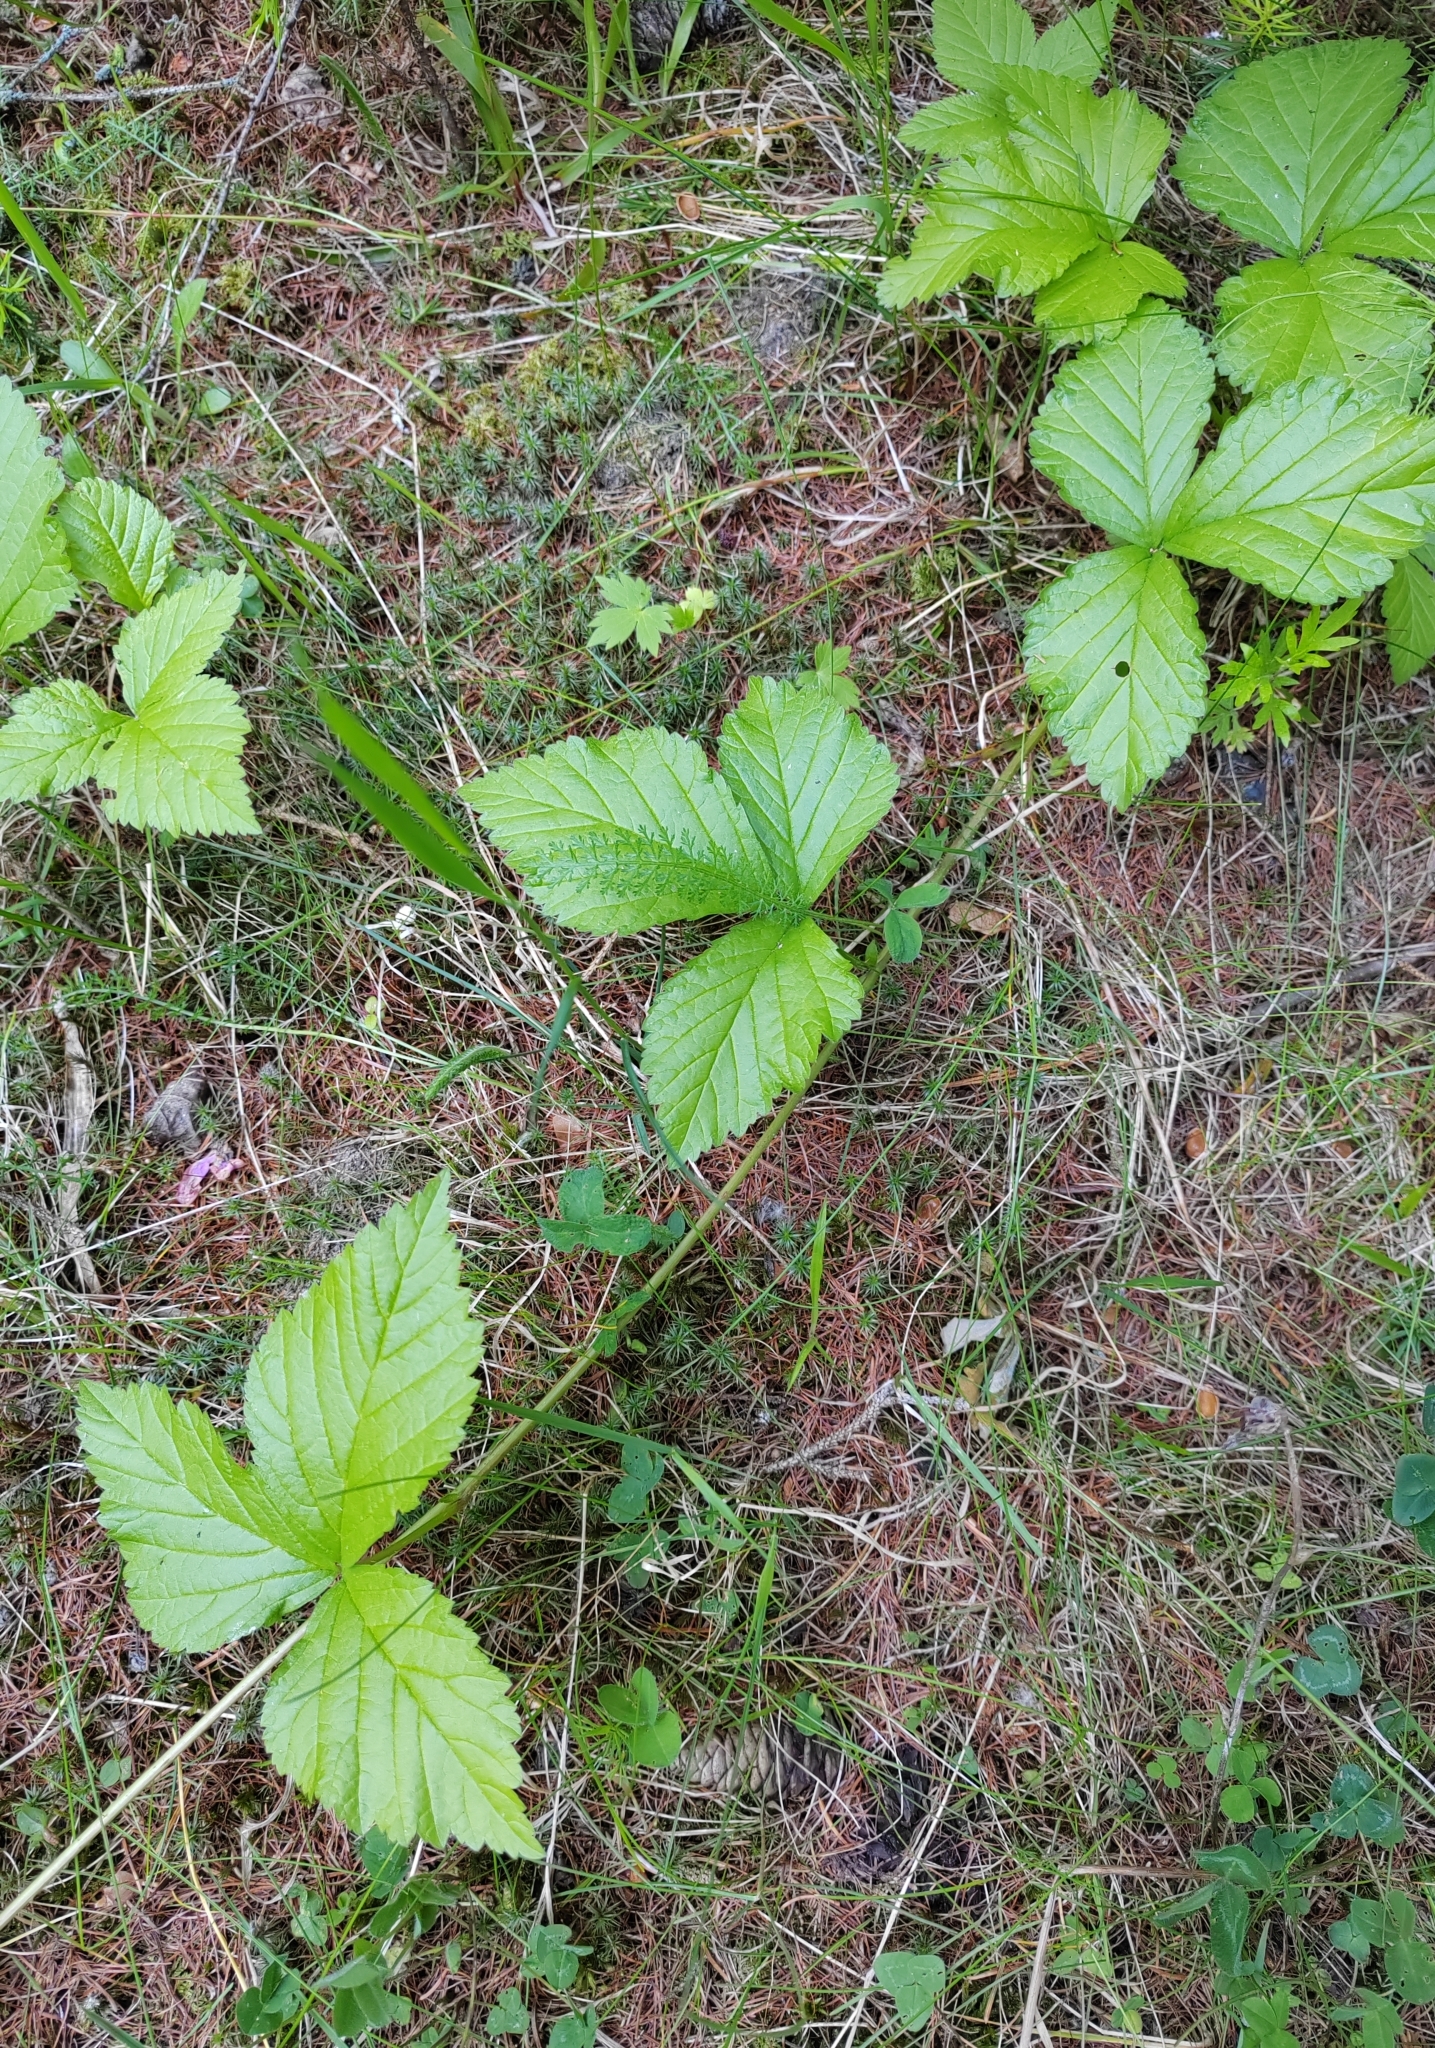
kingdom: Plantae
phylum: Tracheophyta
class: Magnoliopsida
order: Rosales
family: Rosaceae
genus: Rubus
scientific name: Rubus saxatilis
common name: Stone bramble
